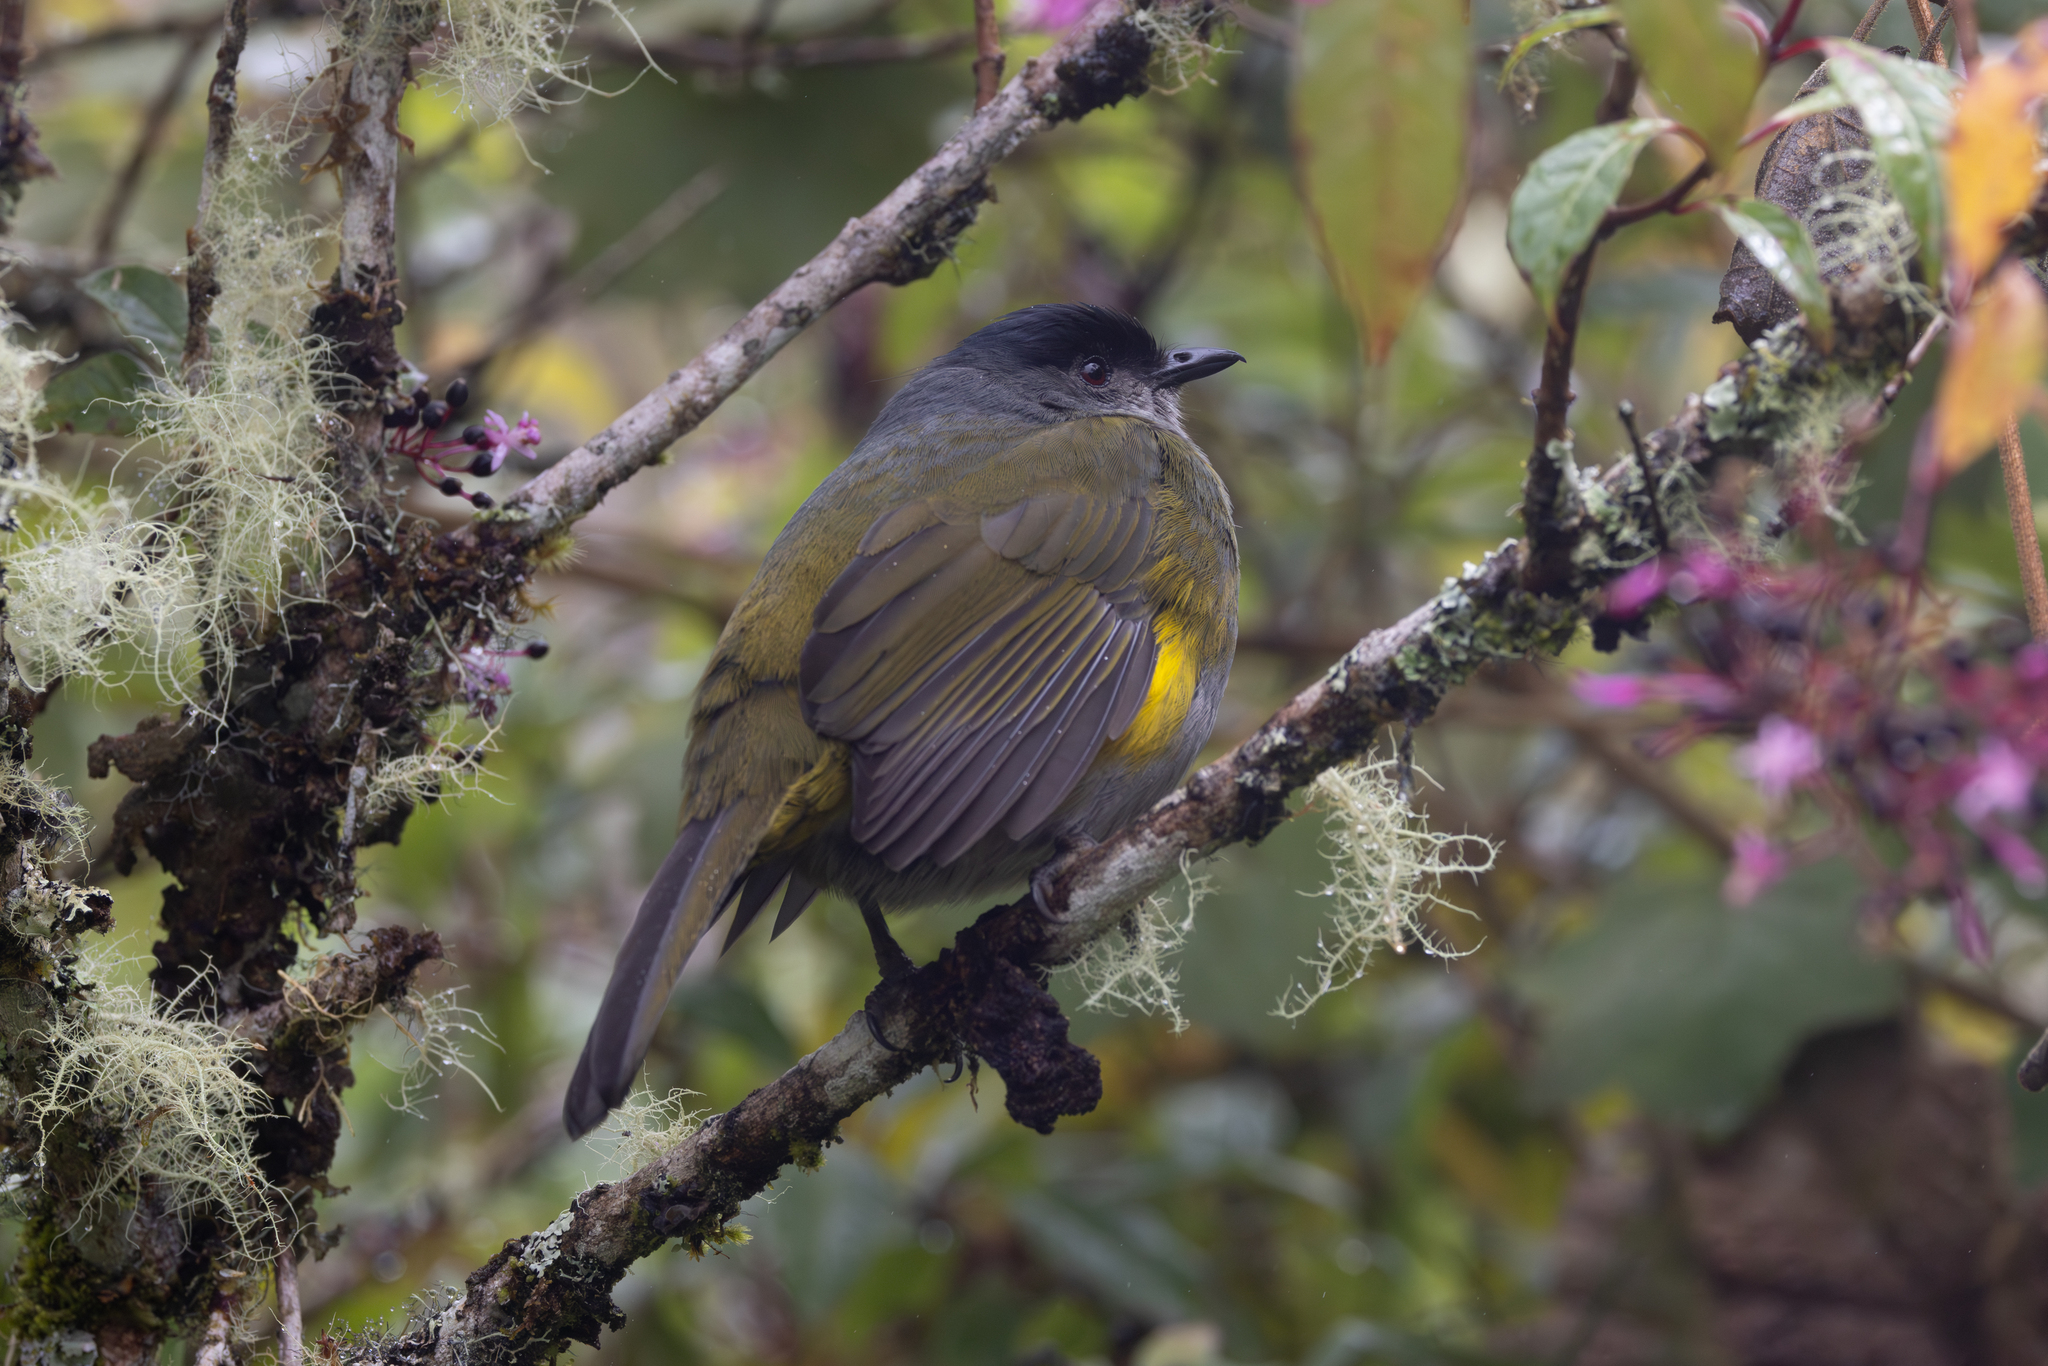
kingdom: Animalia
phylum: Chordata
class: Aves
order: Passeriformes
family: Ptilogonatidae
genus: Phainoptila
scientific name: Phainoptila melanoxantha
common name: Black-and-yellow phainoptila
